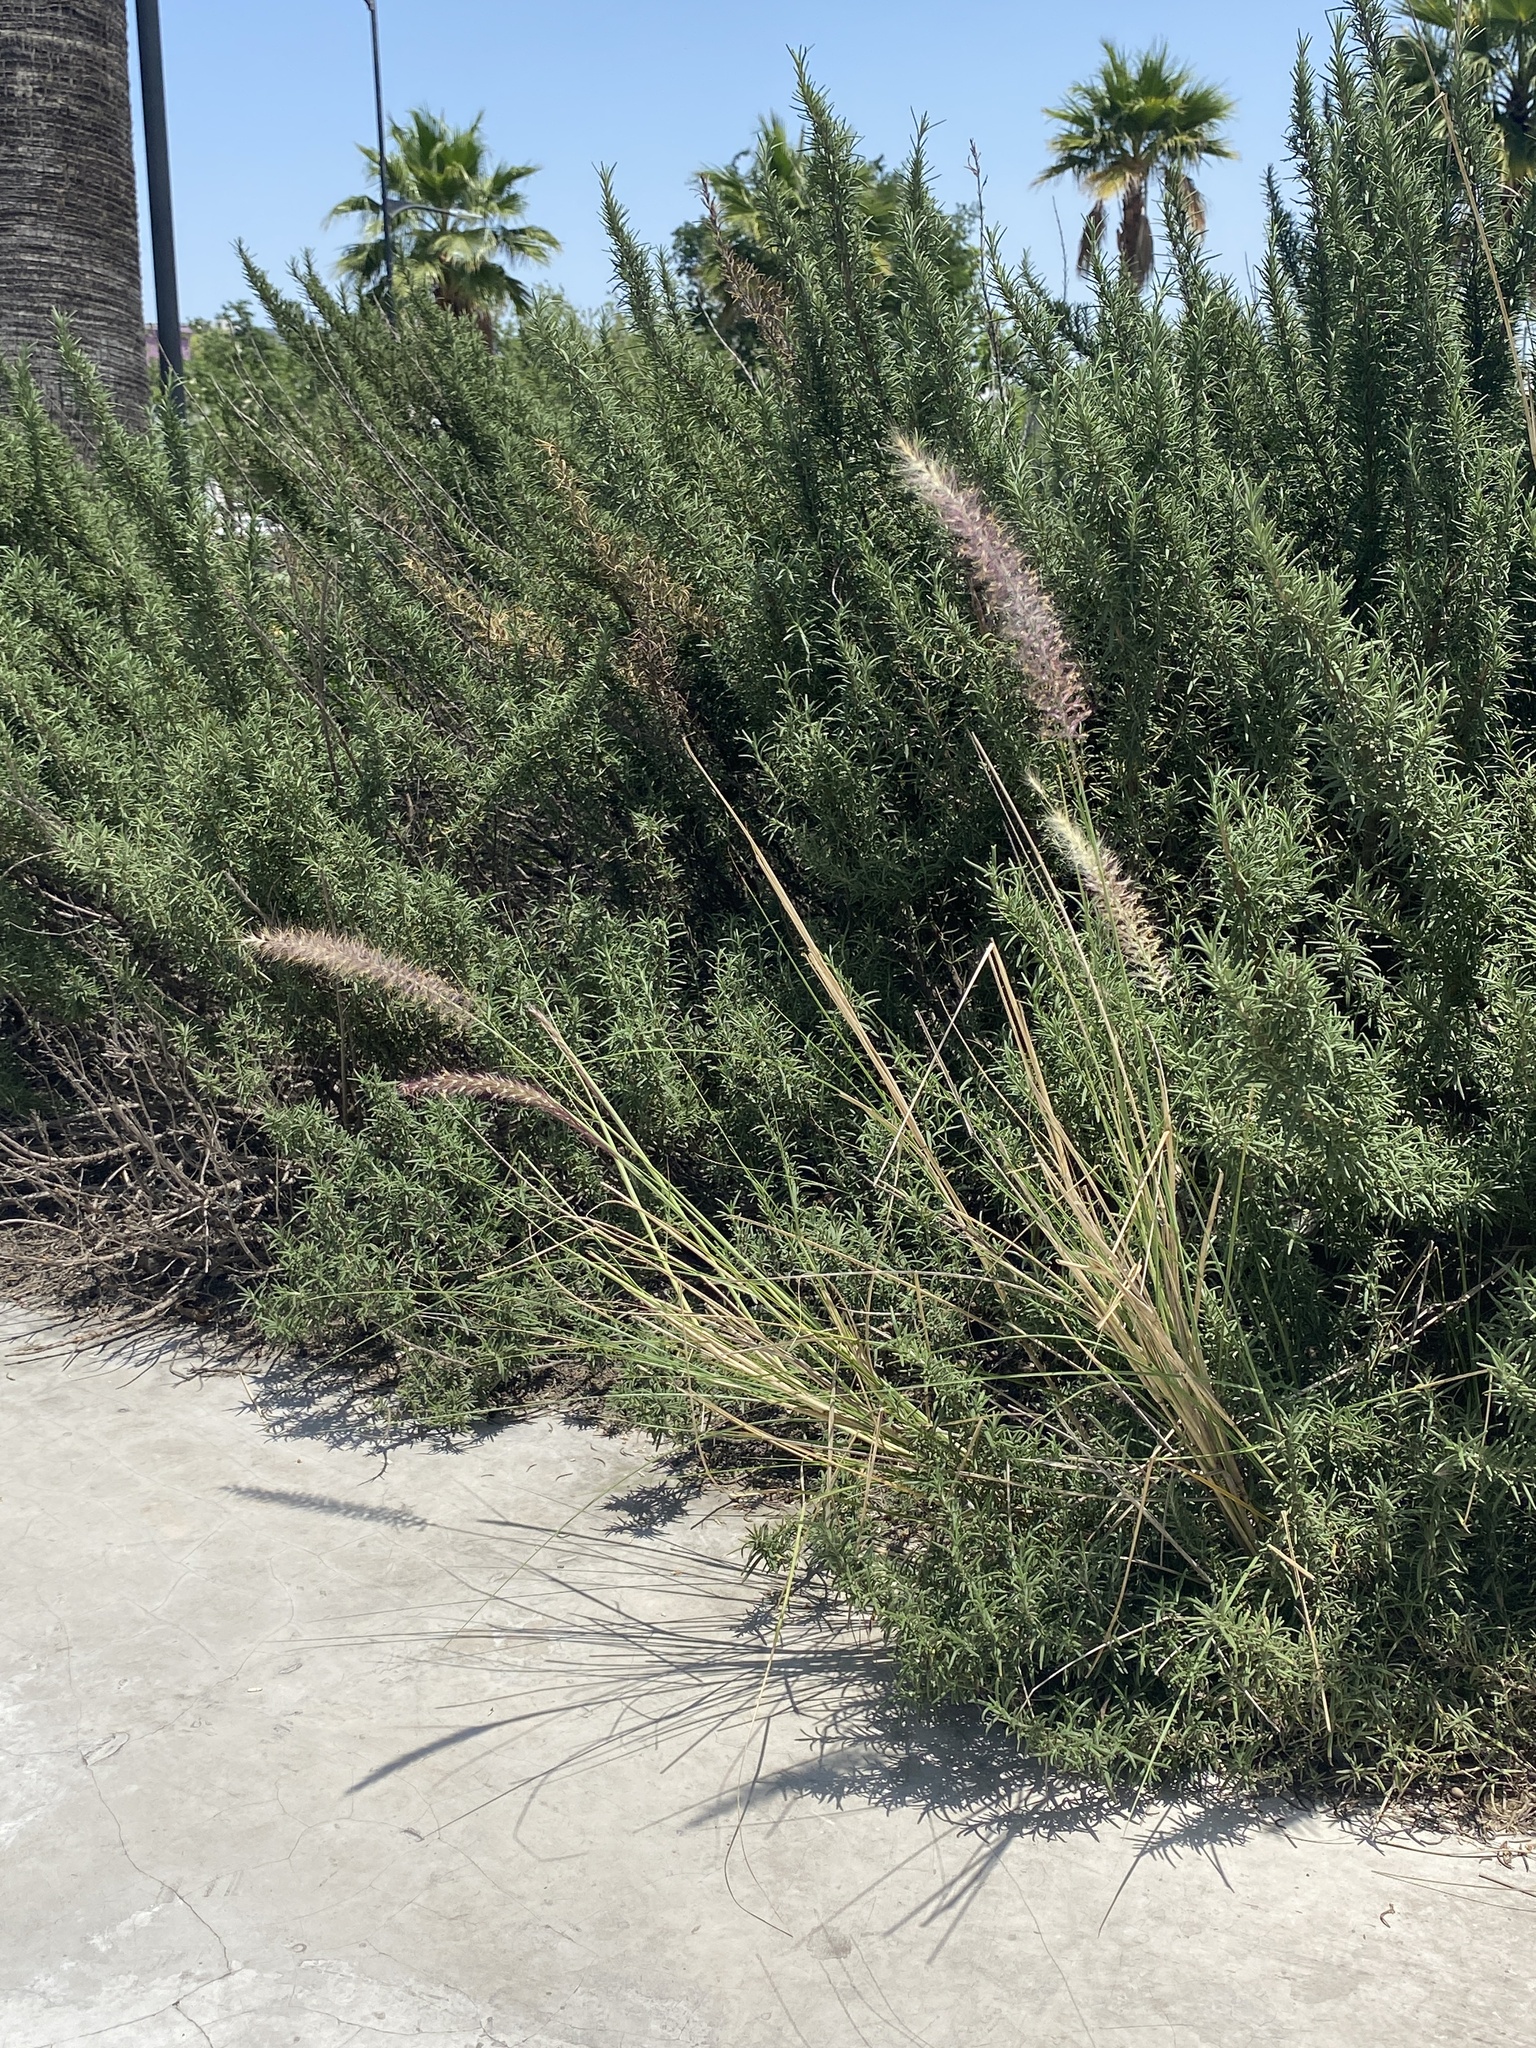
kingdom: Plantae
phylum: Tracheophyta
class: Liliopsida
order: Poales
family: Poaceae
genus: Cenchrus
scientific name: Cenchrus ciliaris
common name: Buffelgrass
